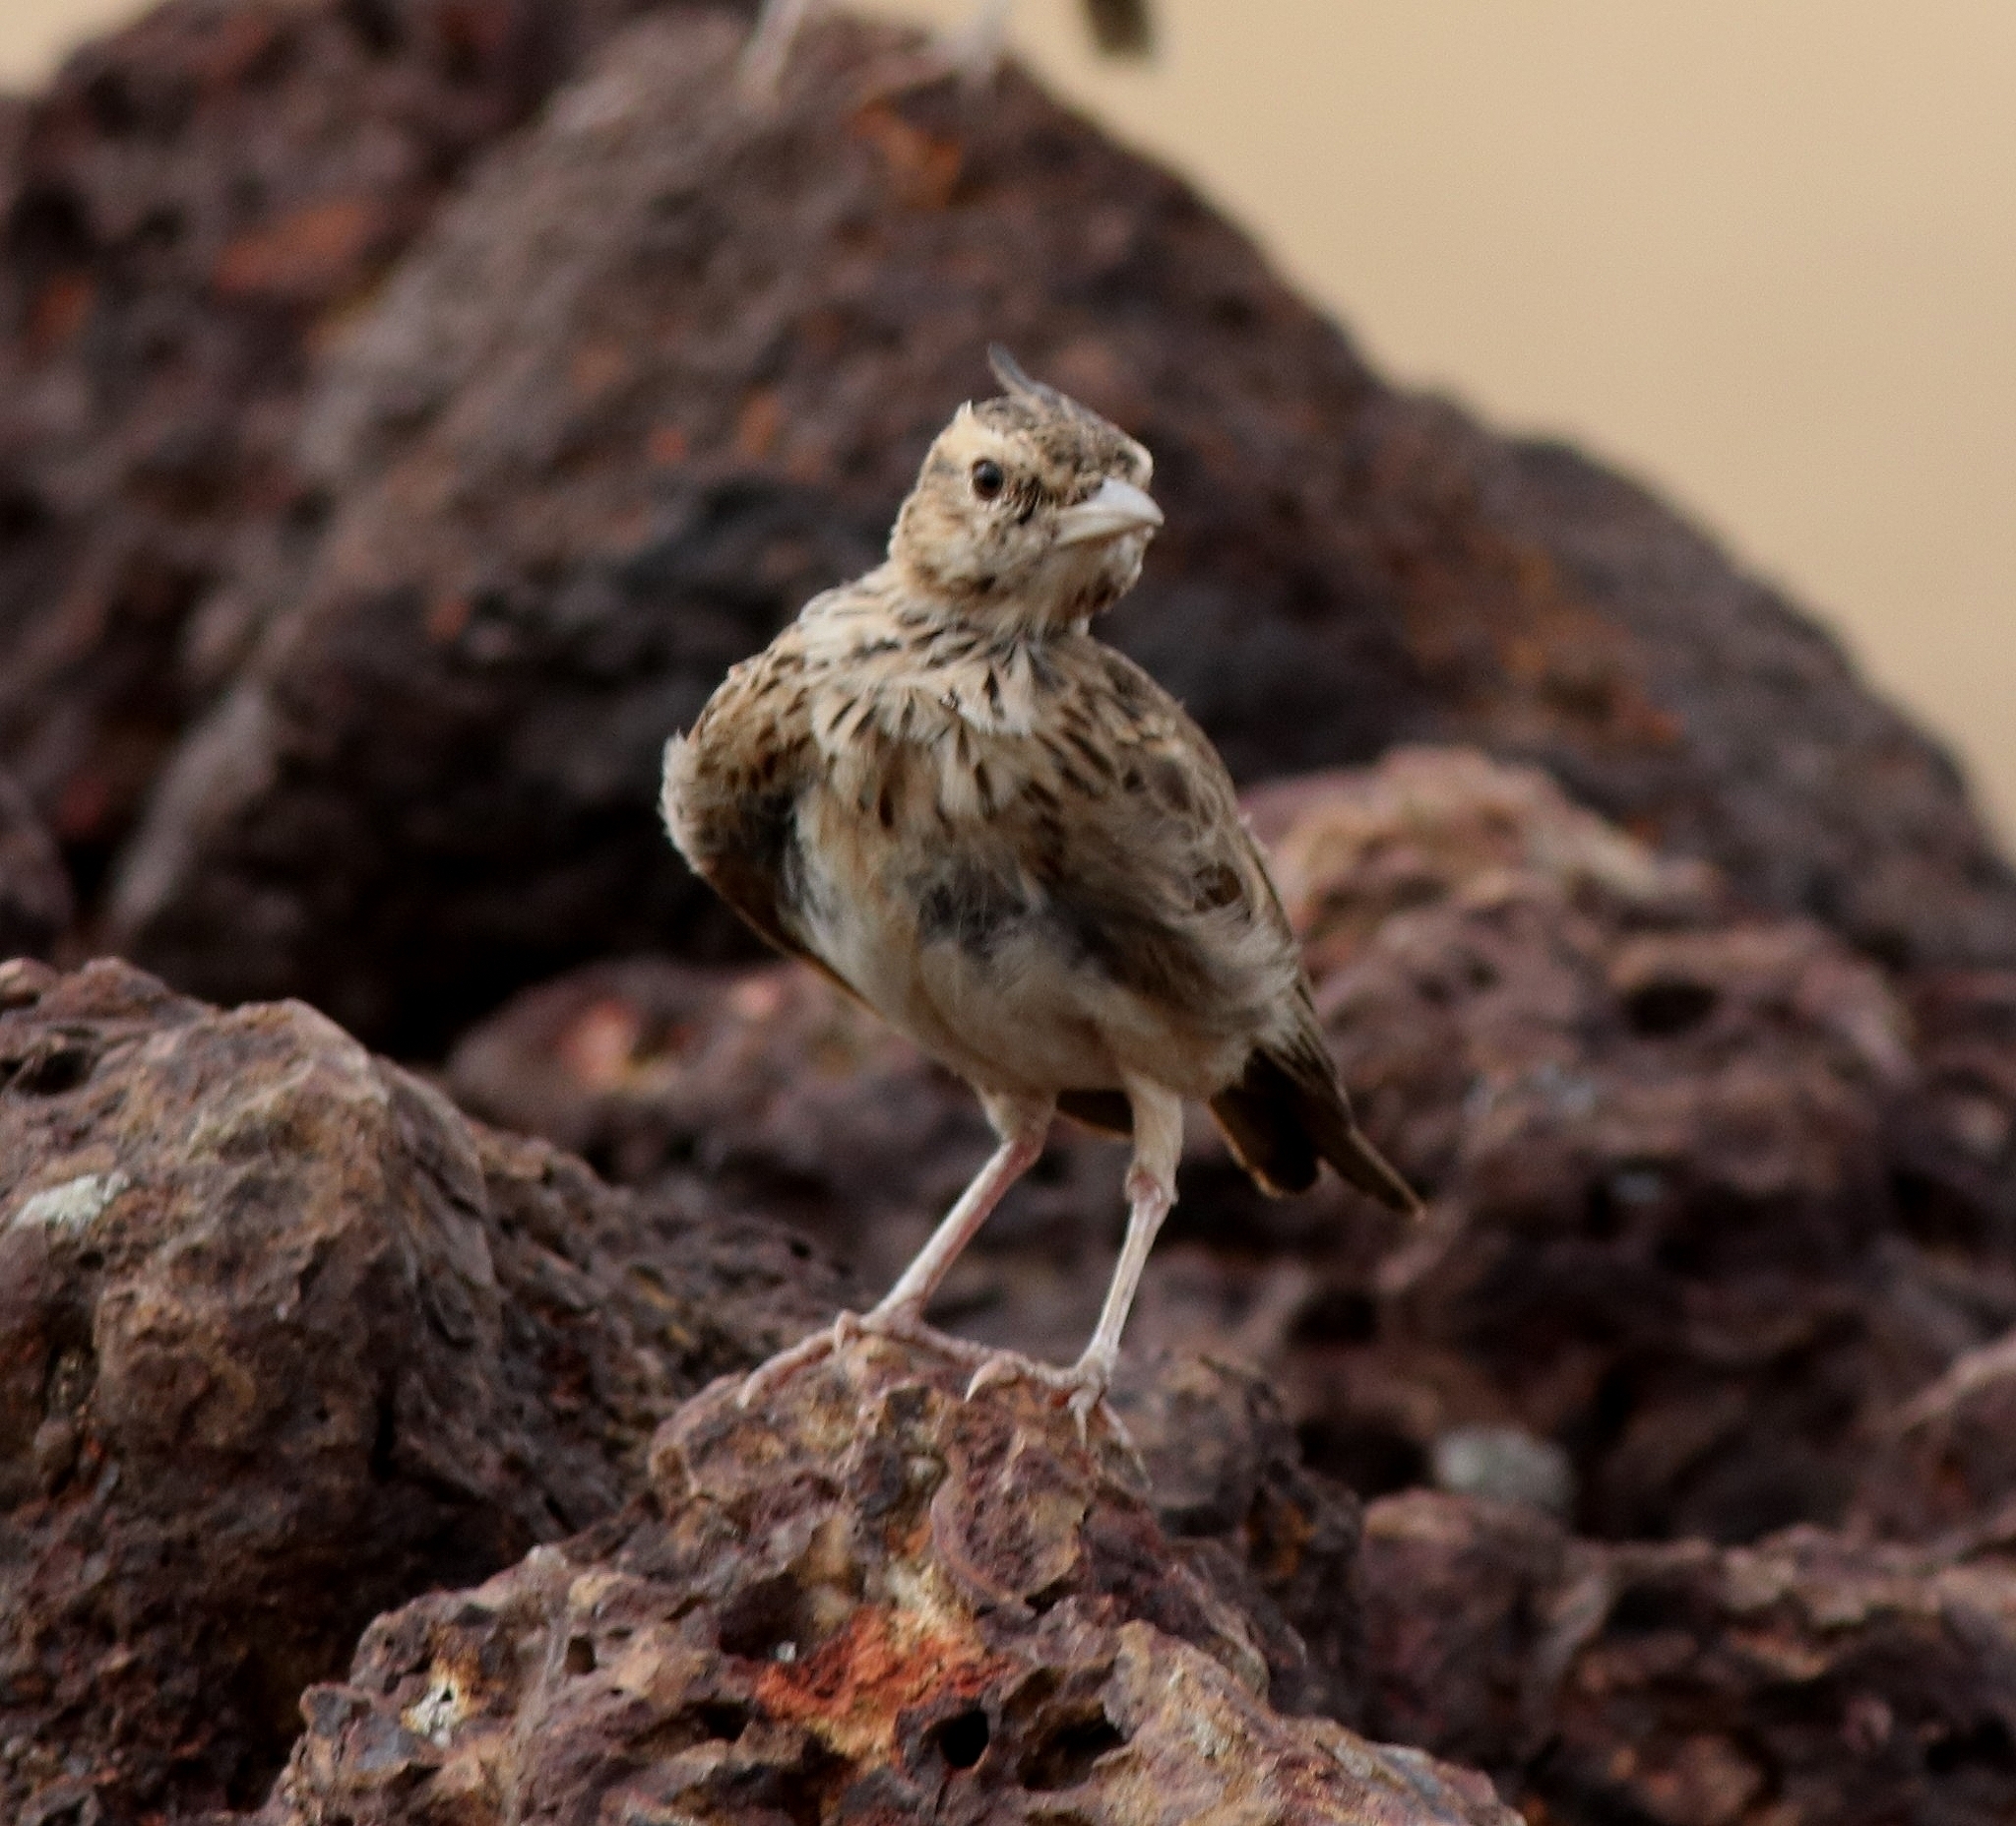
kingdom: Animalia
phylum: Chordata
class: Aves
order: Passeriformes
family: Alaudidae
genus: Galerida
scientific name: Galerida malabarica
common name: Malabar lark
